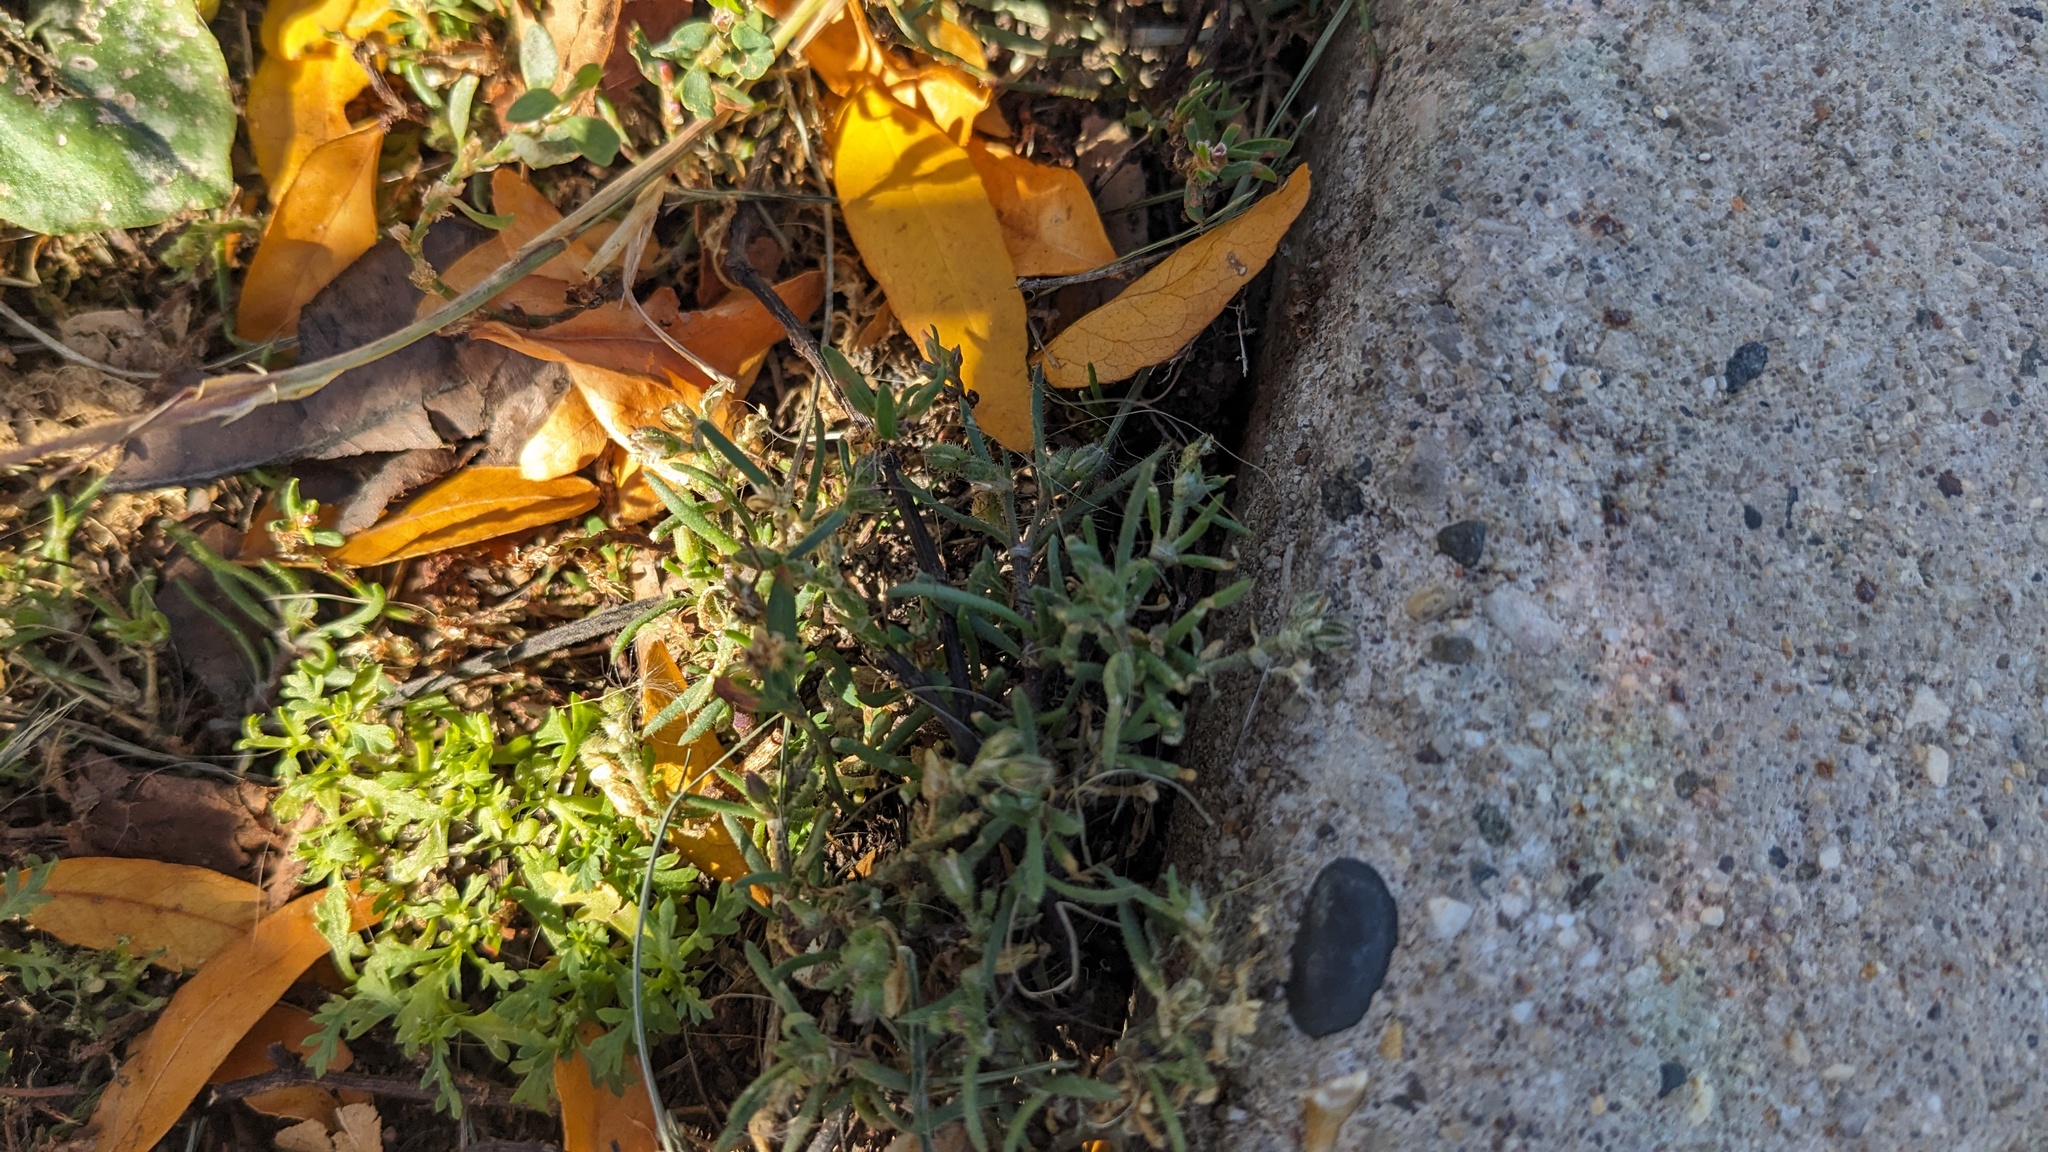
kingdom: Plantae
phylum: Tracheophyta
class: Magnoliopsida
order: Caryophyllales
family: Caryophyllaceae
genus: Spergularia
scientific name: Spergularia marina
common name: Lesser sea-spurrey
